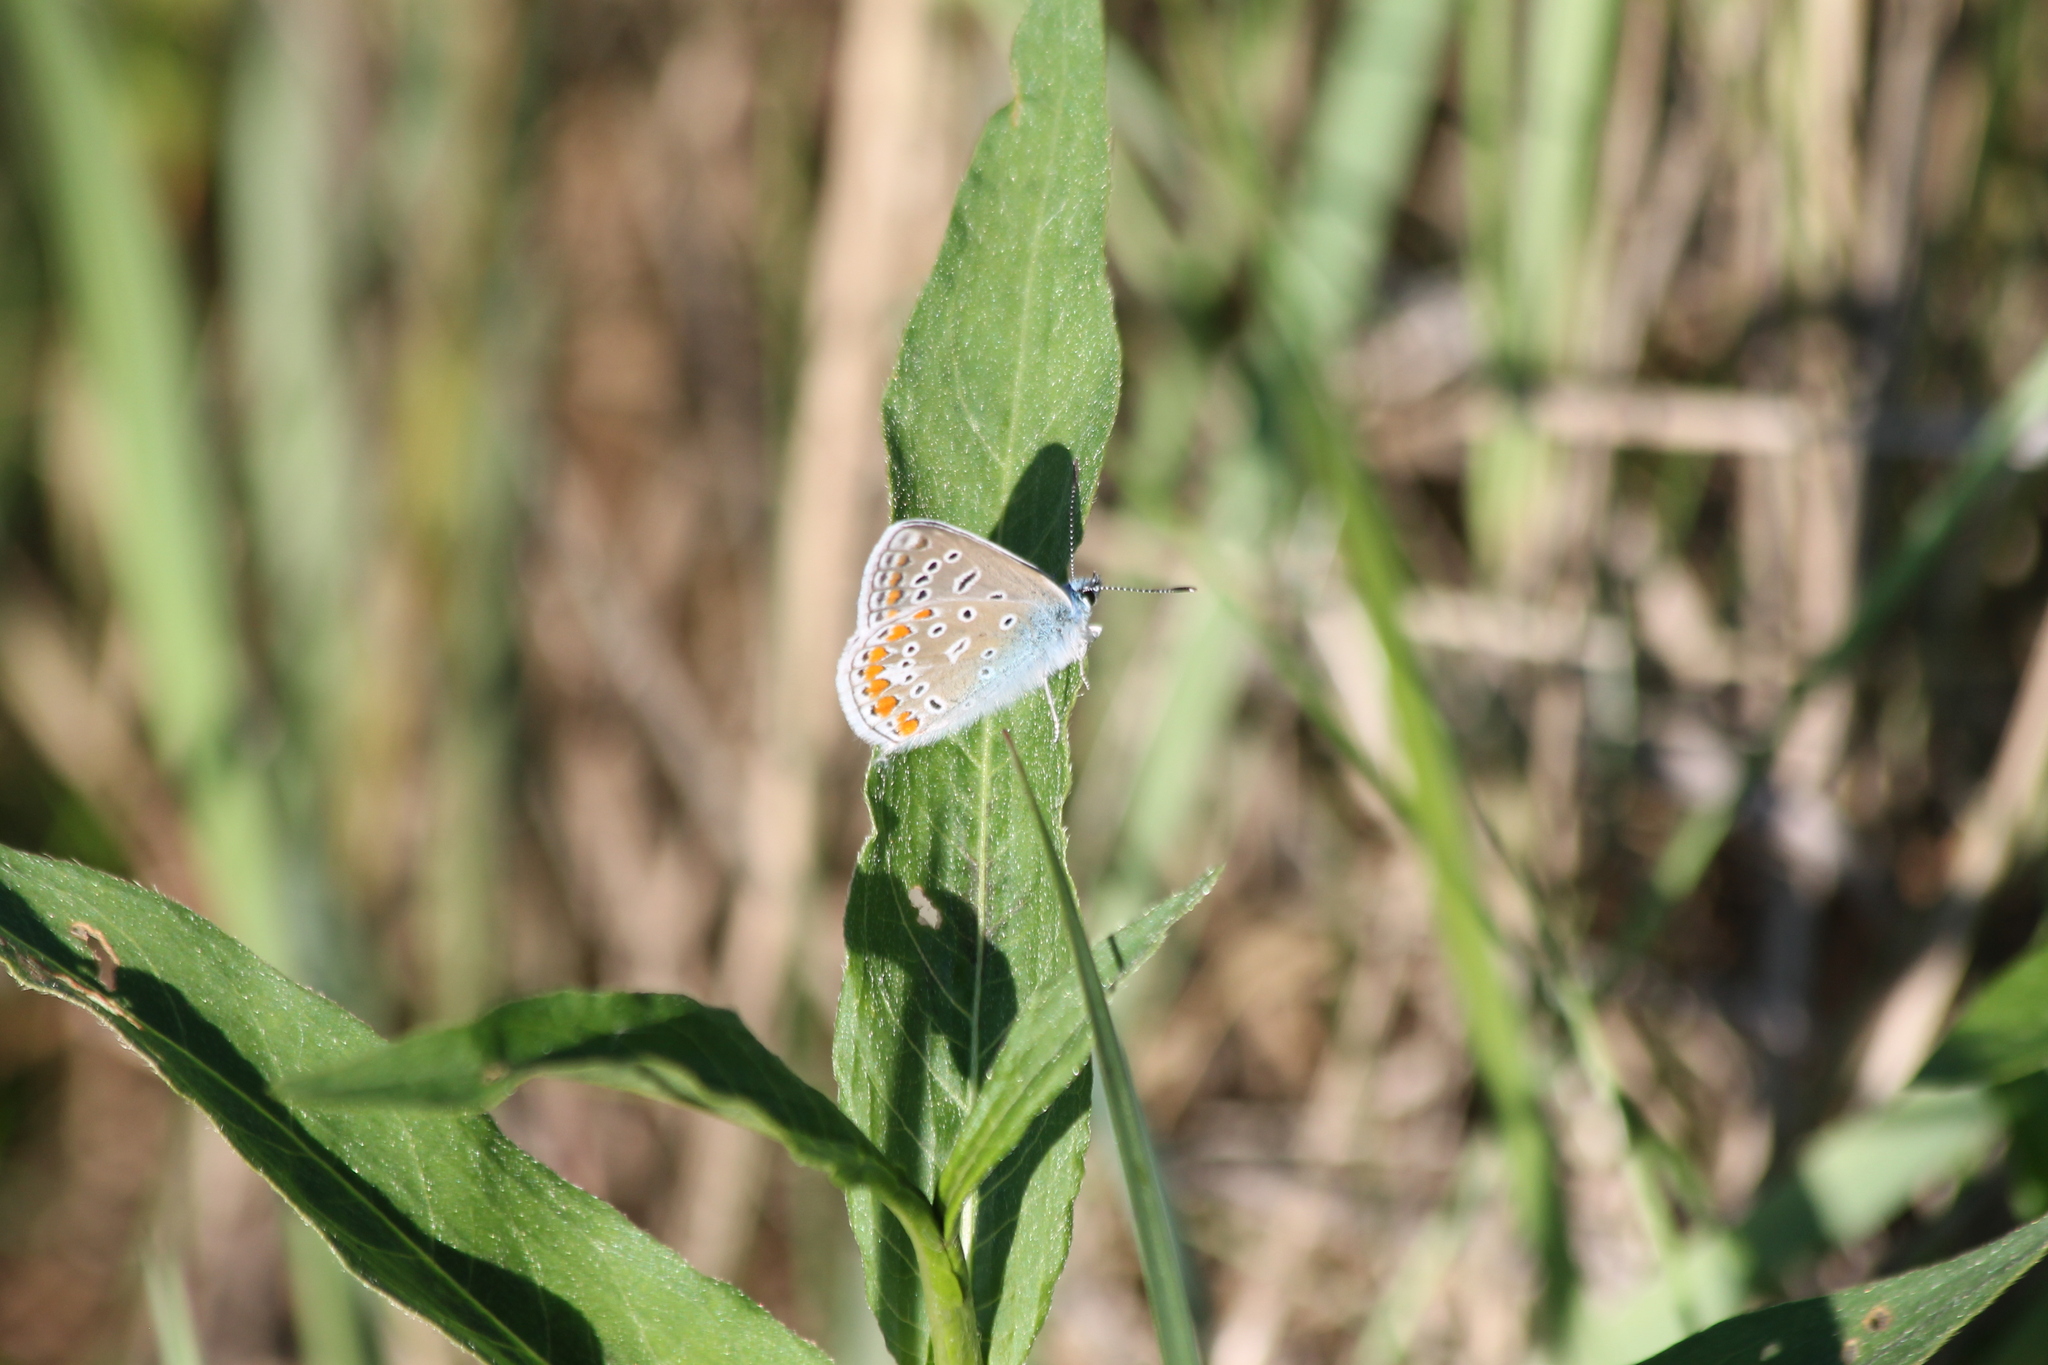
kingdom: Animalia
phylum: Arthropoda
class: Insecta
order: Lepidoptera
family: Lycaenidae
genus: Polyommatus
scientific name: Polyommatus icarus
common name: Common blue
